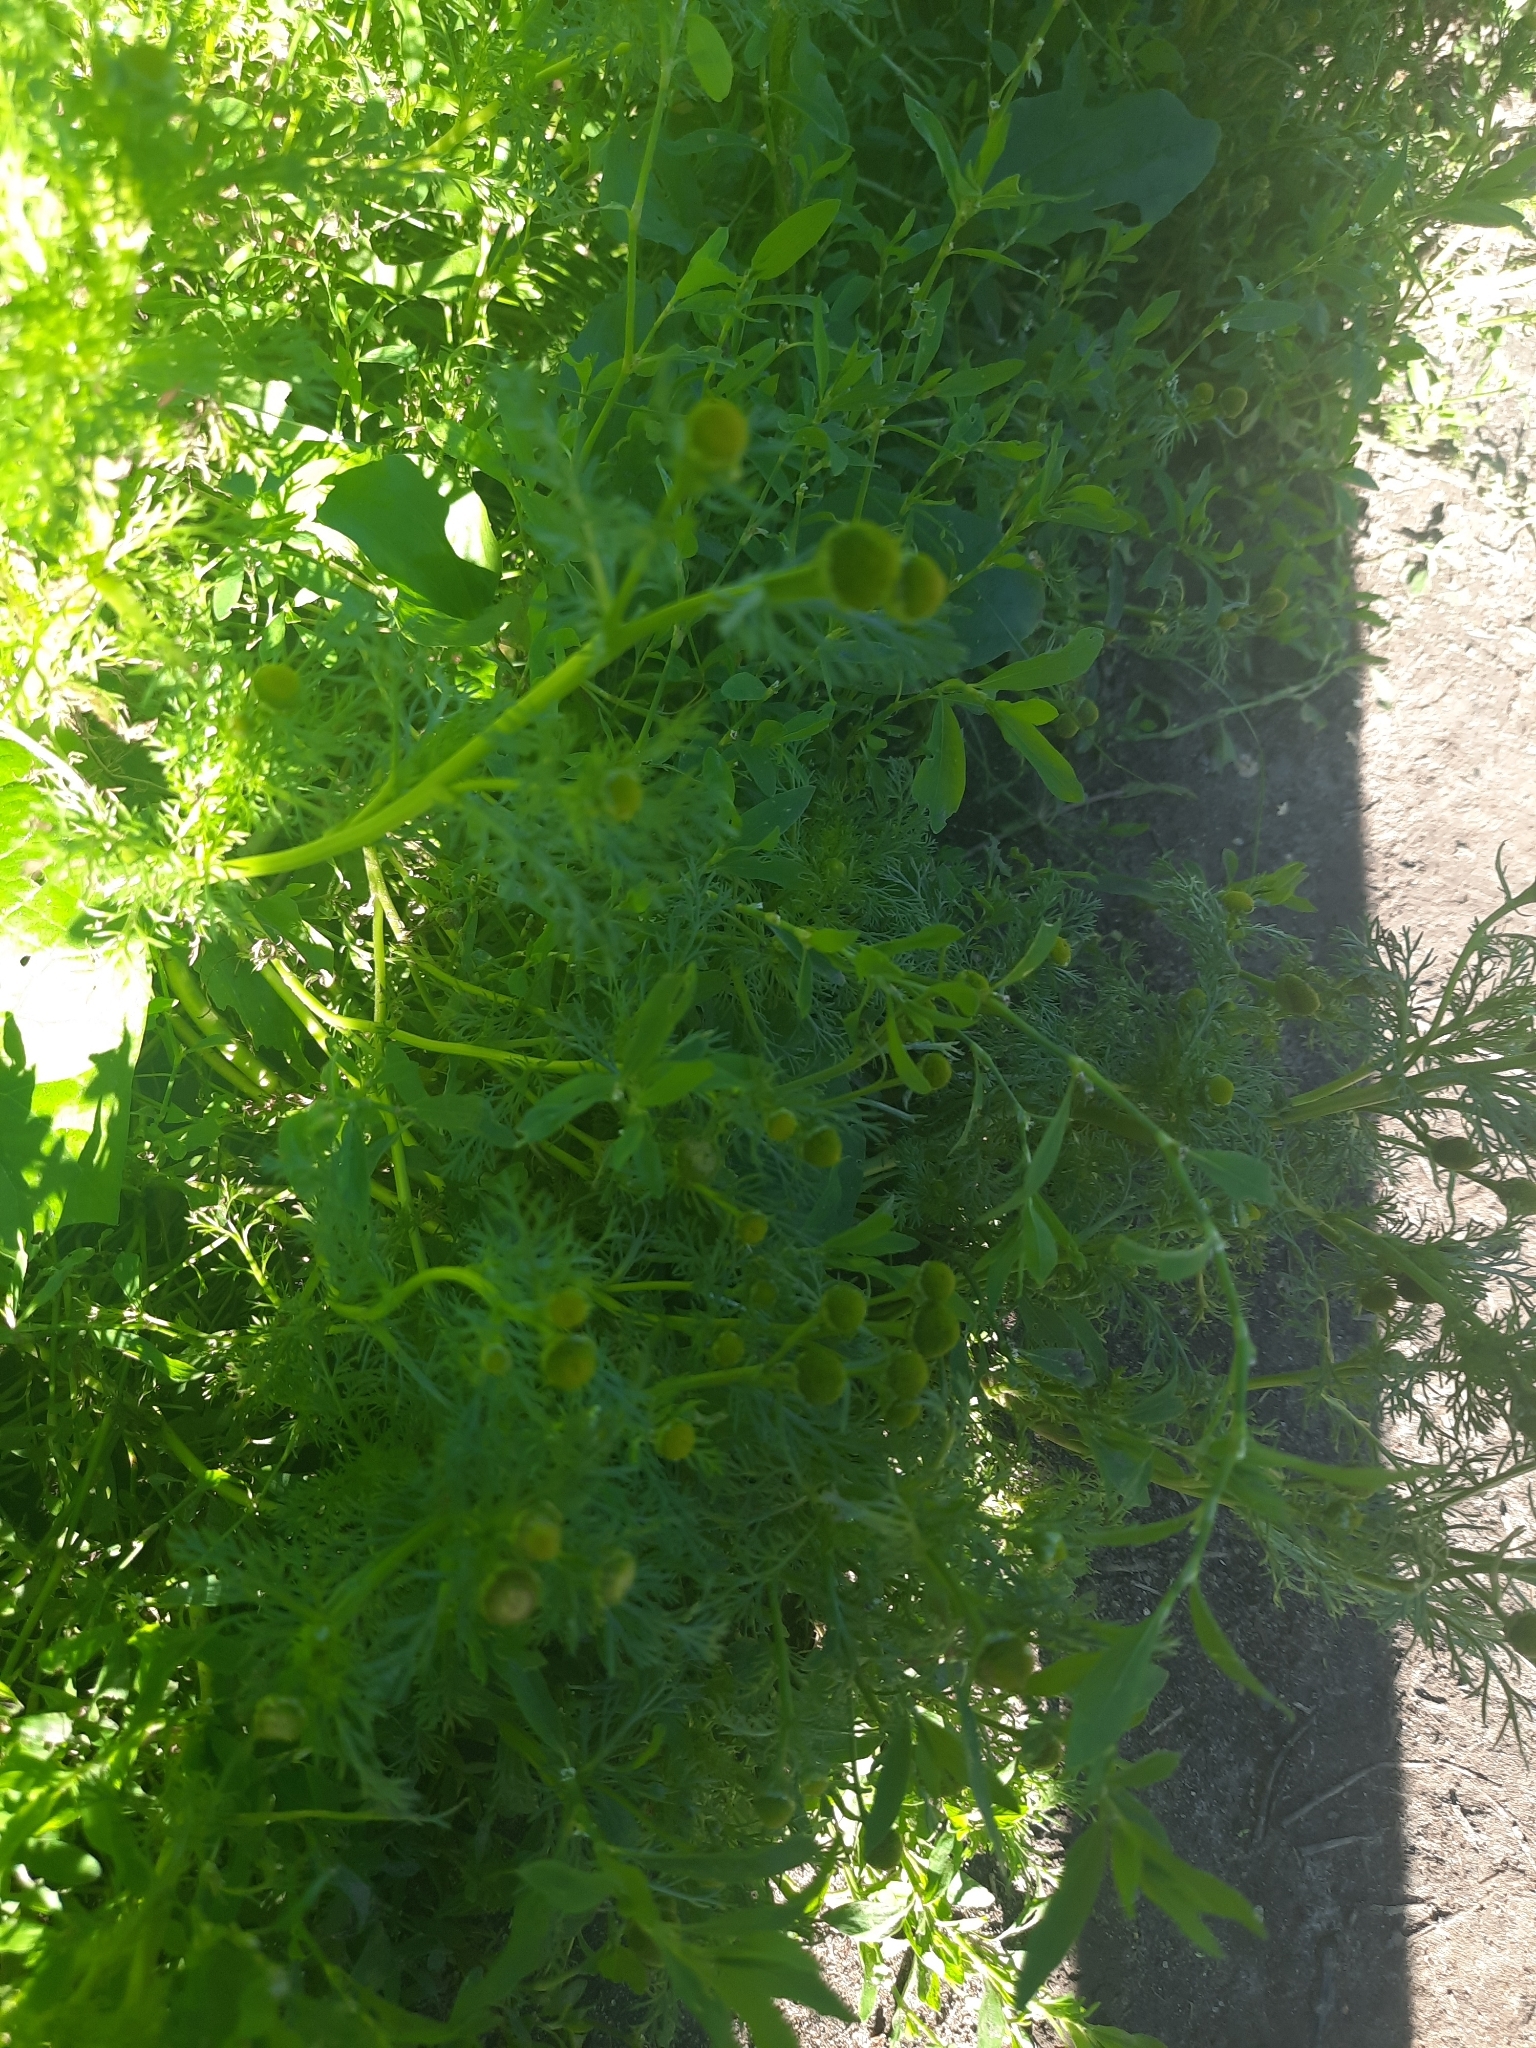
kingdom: Plantae
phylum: Tracheophyta
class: Magnoliopsida
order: Asterales
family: Asteraceae
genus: Matricaria
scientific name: Matricaria discoidea
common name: Disc mayweed
